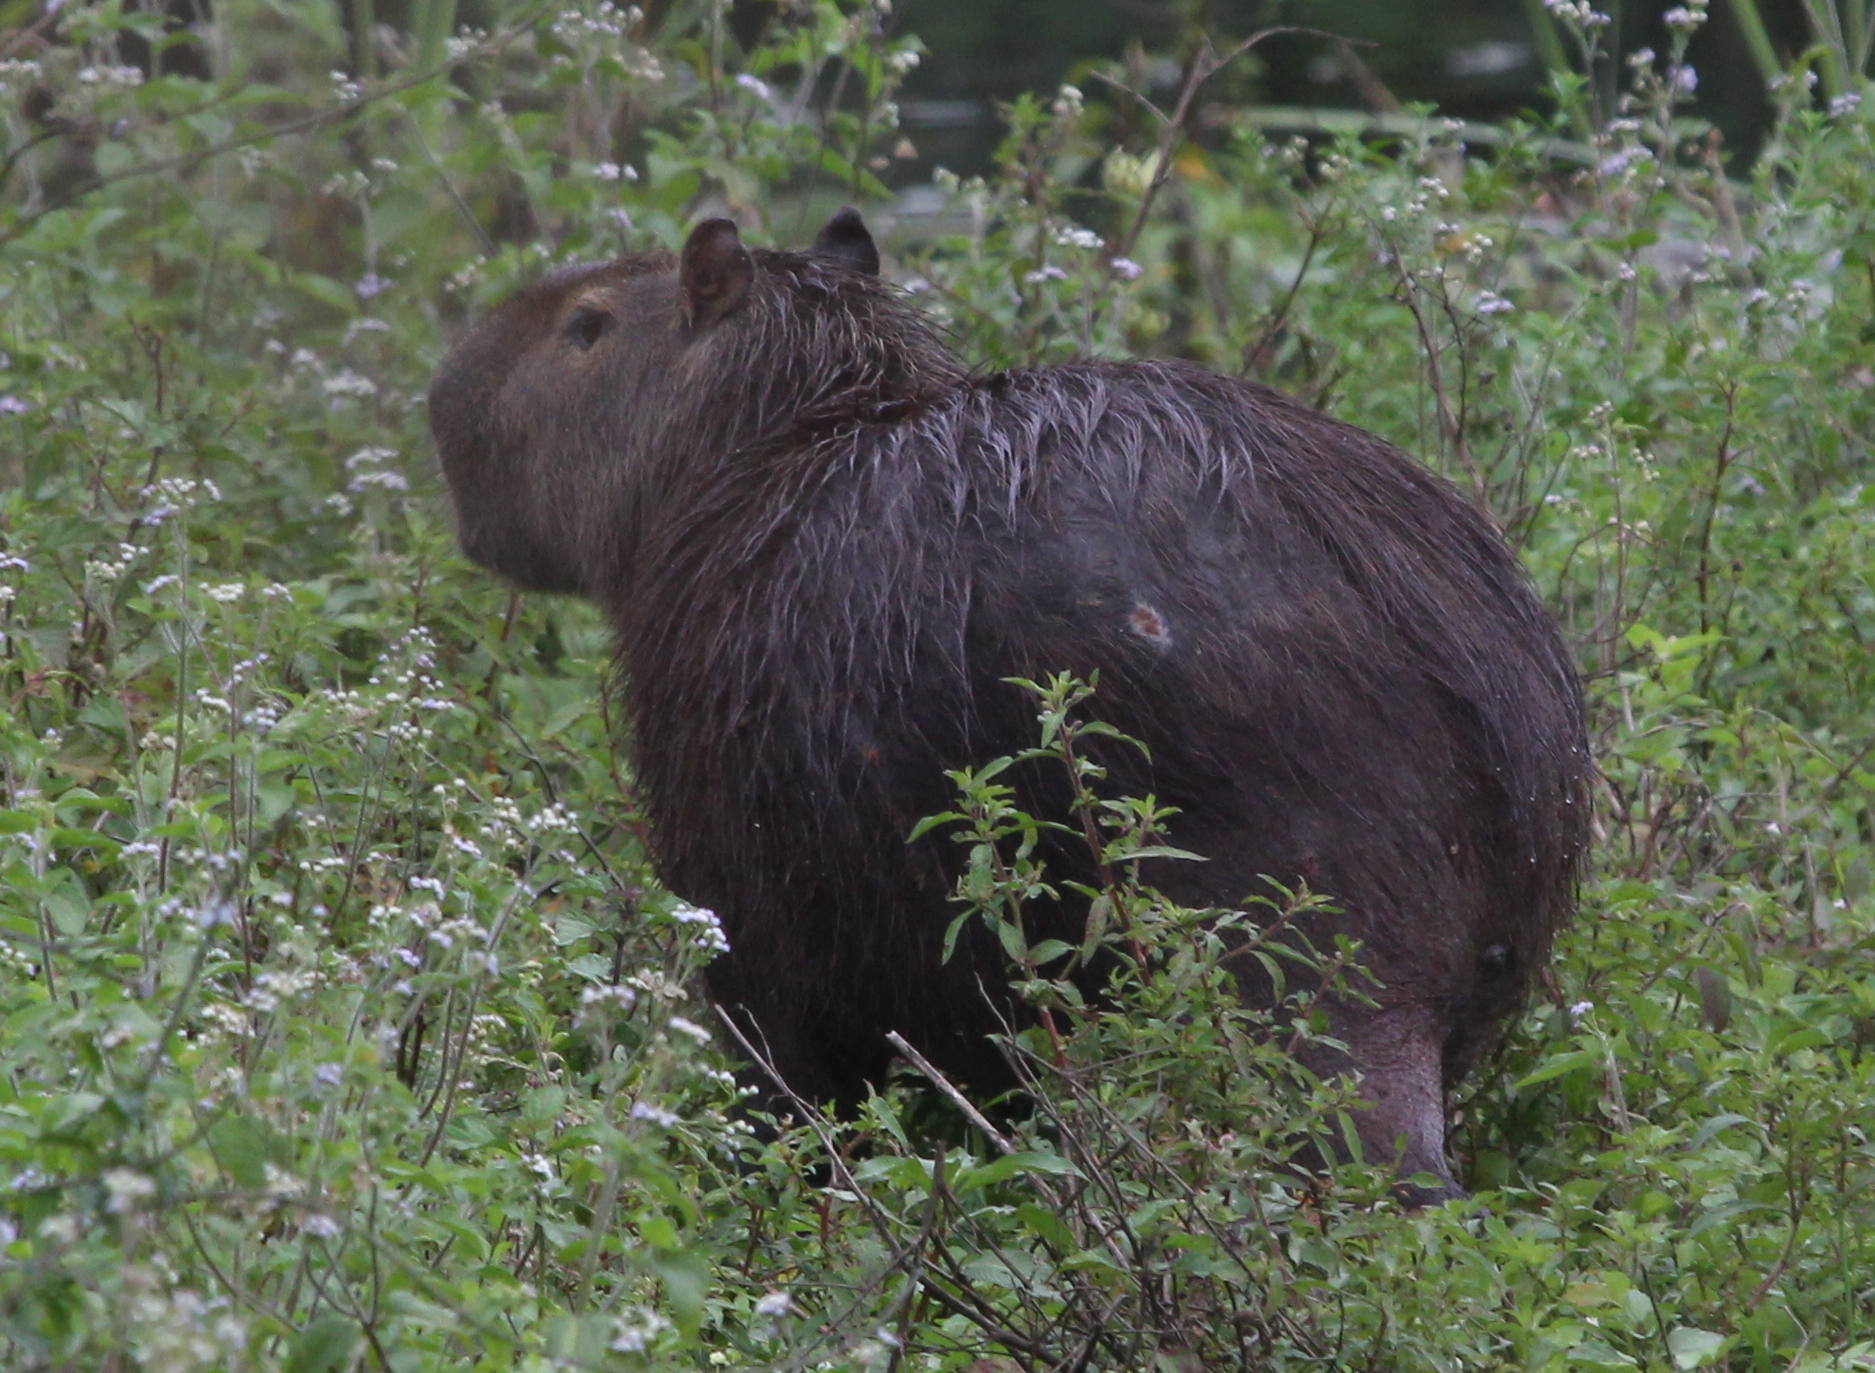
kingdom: Animalia
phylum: Chordata
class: Mammalia
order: Rodentia
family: Caviidae
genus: Hydrochoerus
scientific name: Hydrochoerus hydrochaeris
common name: Capybara
